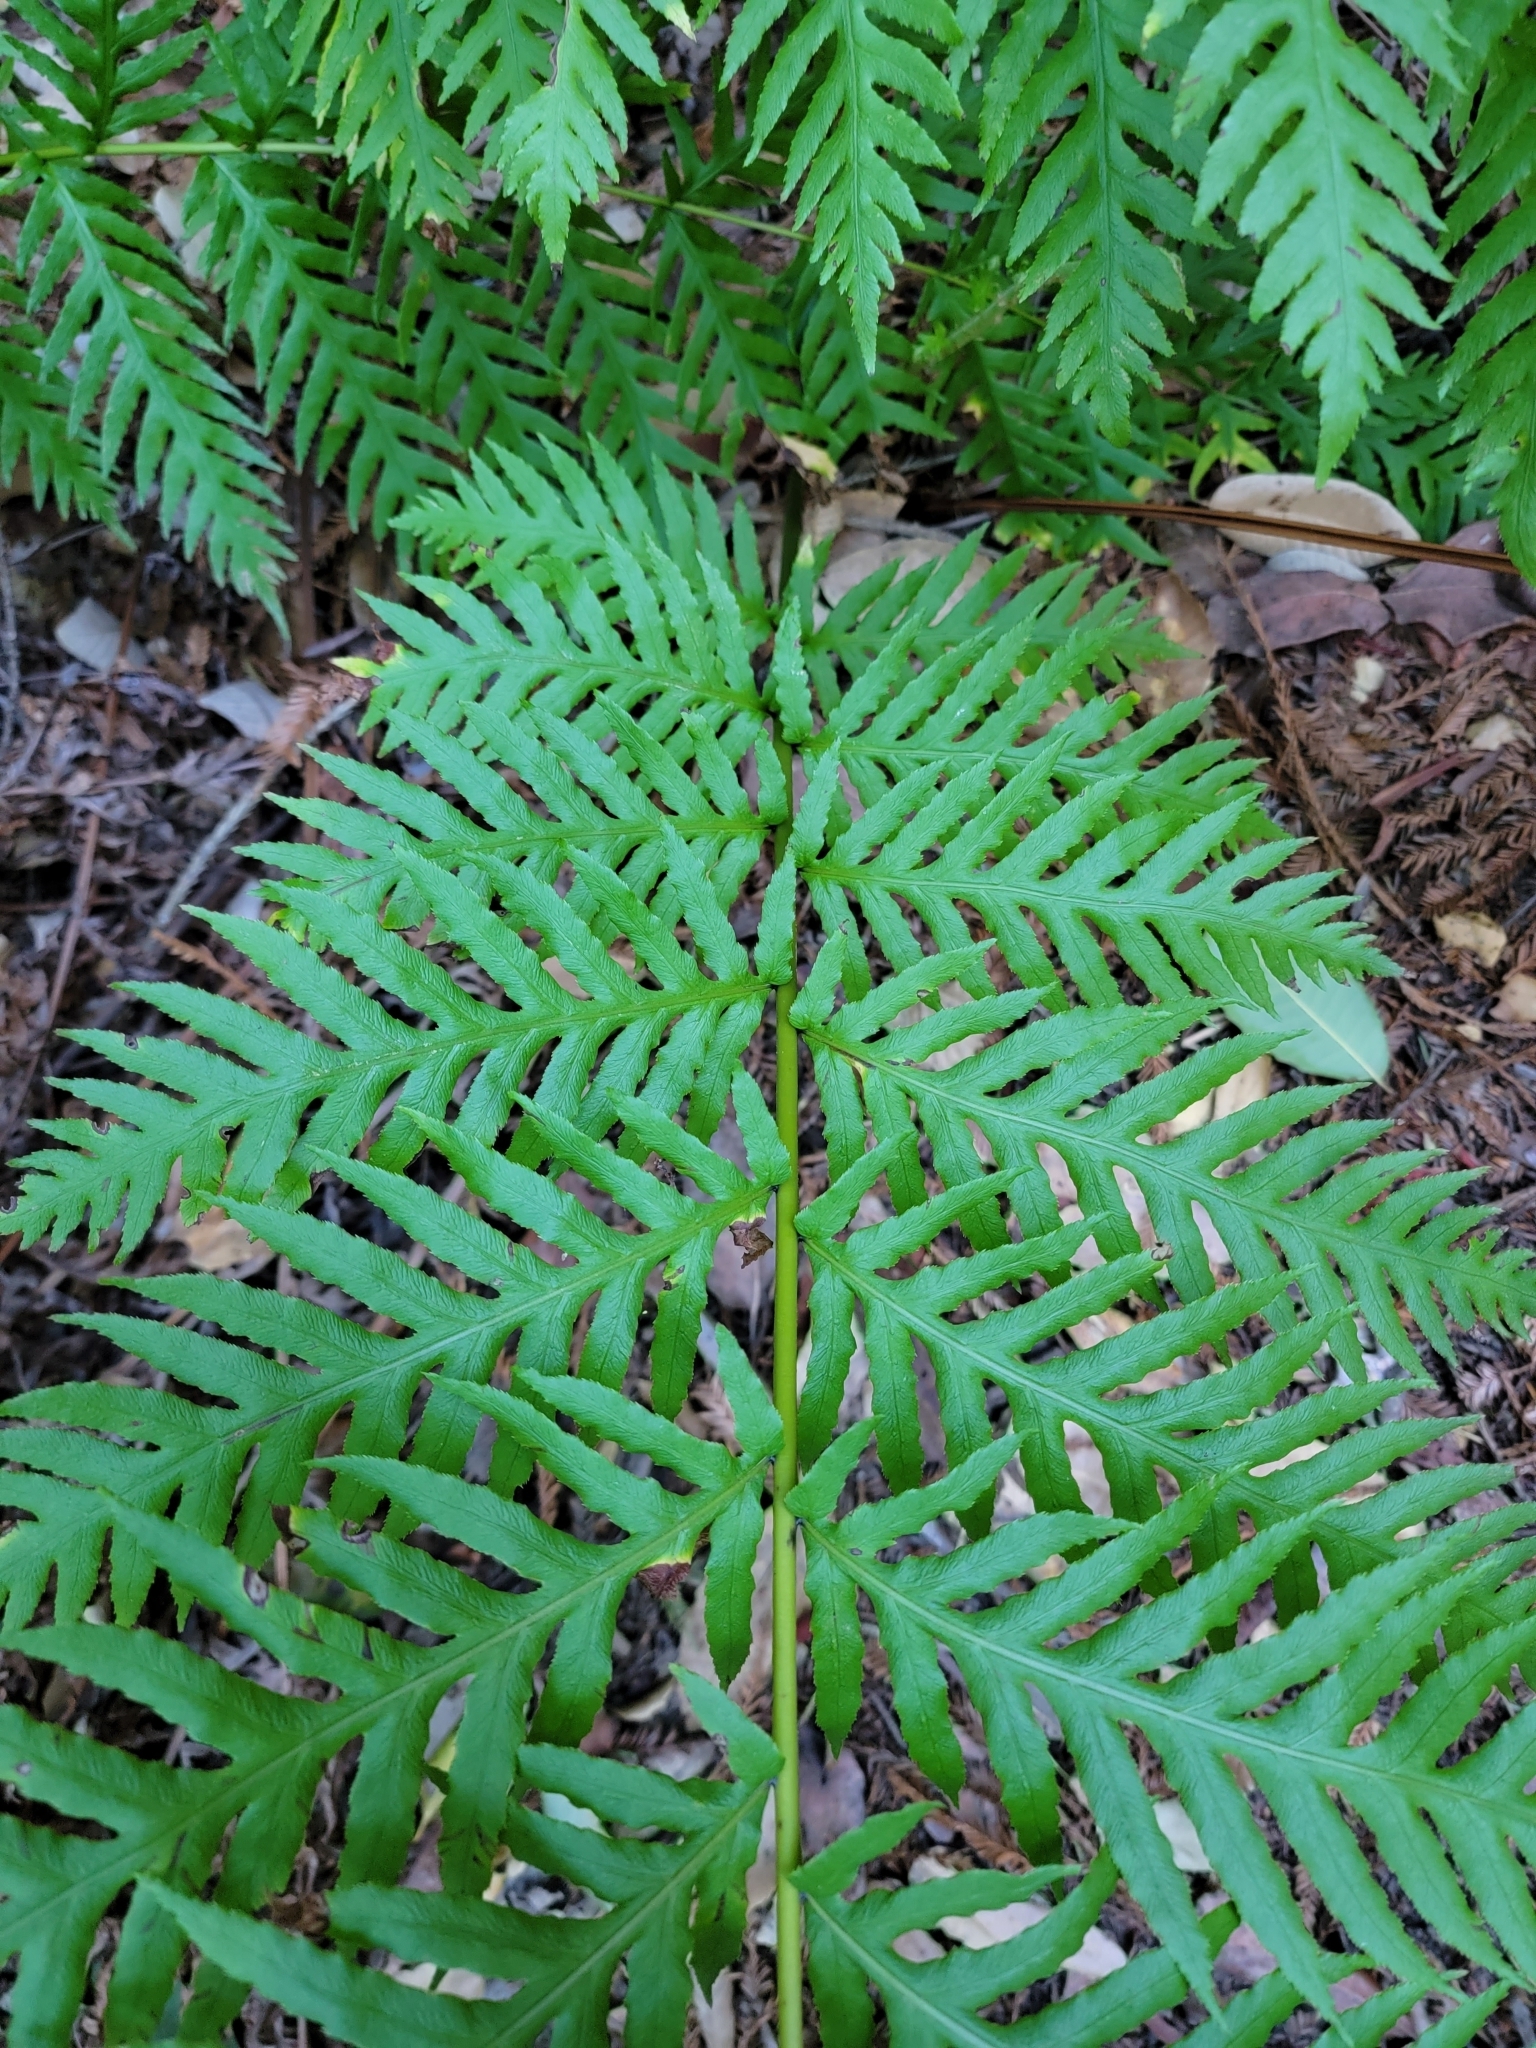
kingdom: Plantae
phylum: Tracheophyta
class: Polypodiopsida
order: Polypodiales
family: Blechnaceae
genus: Woodwardia
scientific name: Woodwardia fimbriata
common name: Giant chain fern
